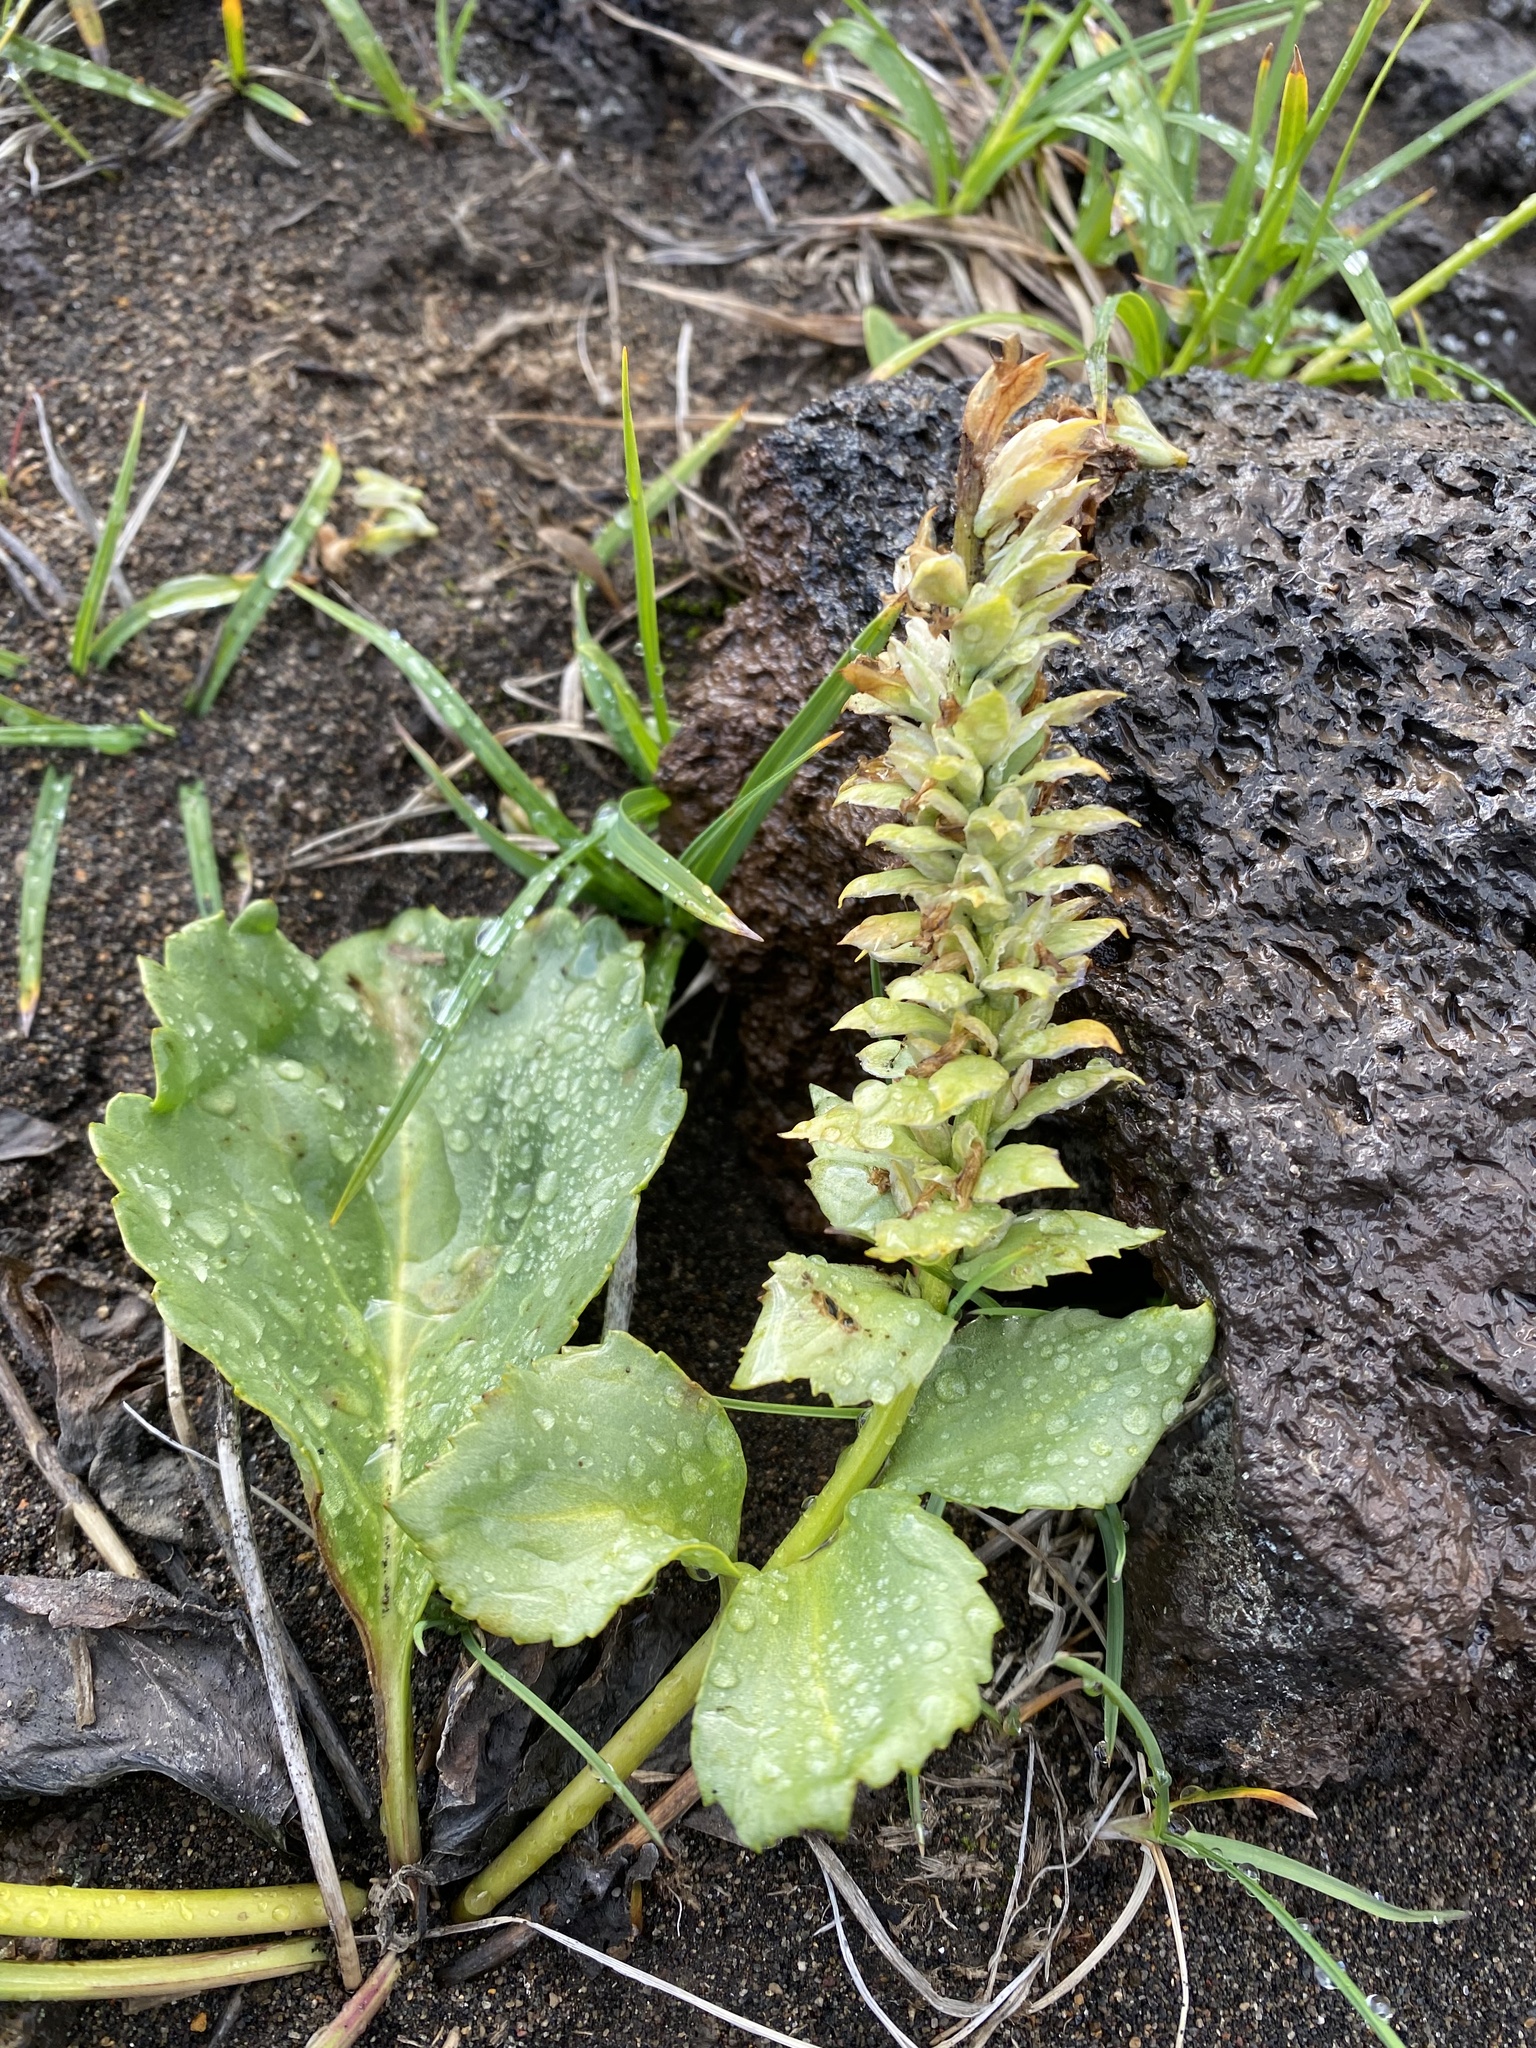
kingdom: Plantae
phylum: Tracheophyta
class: Magnoliopsida
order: Lamiales
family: Plantaginaceae
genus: Lagotis
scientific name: Lagotis glauca
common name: Glaucous weaselsnout
